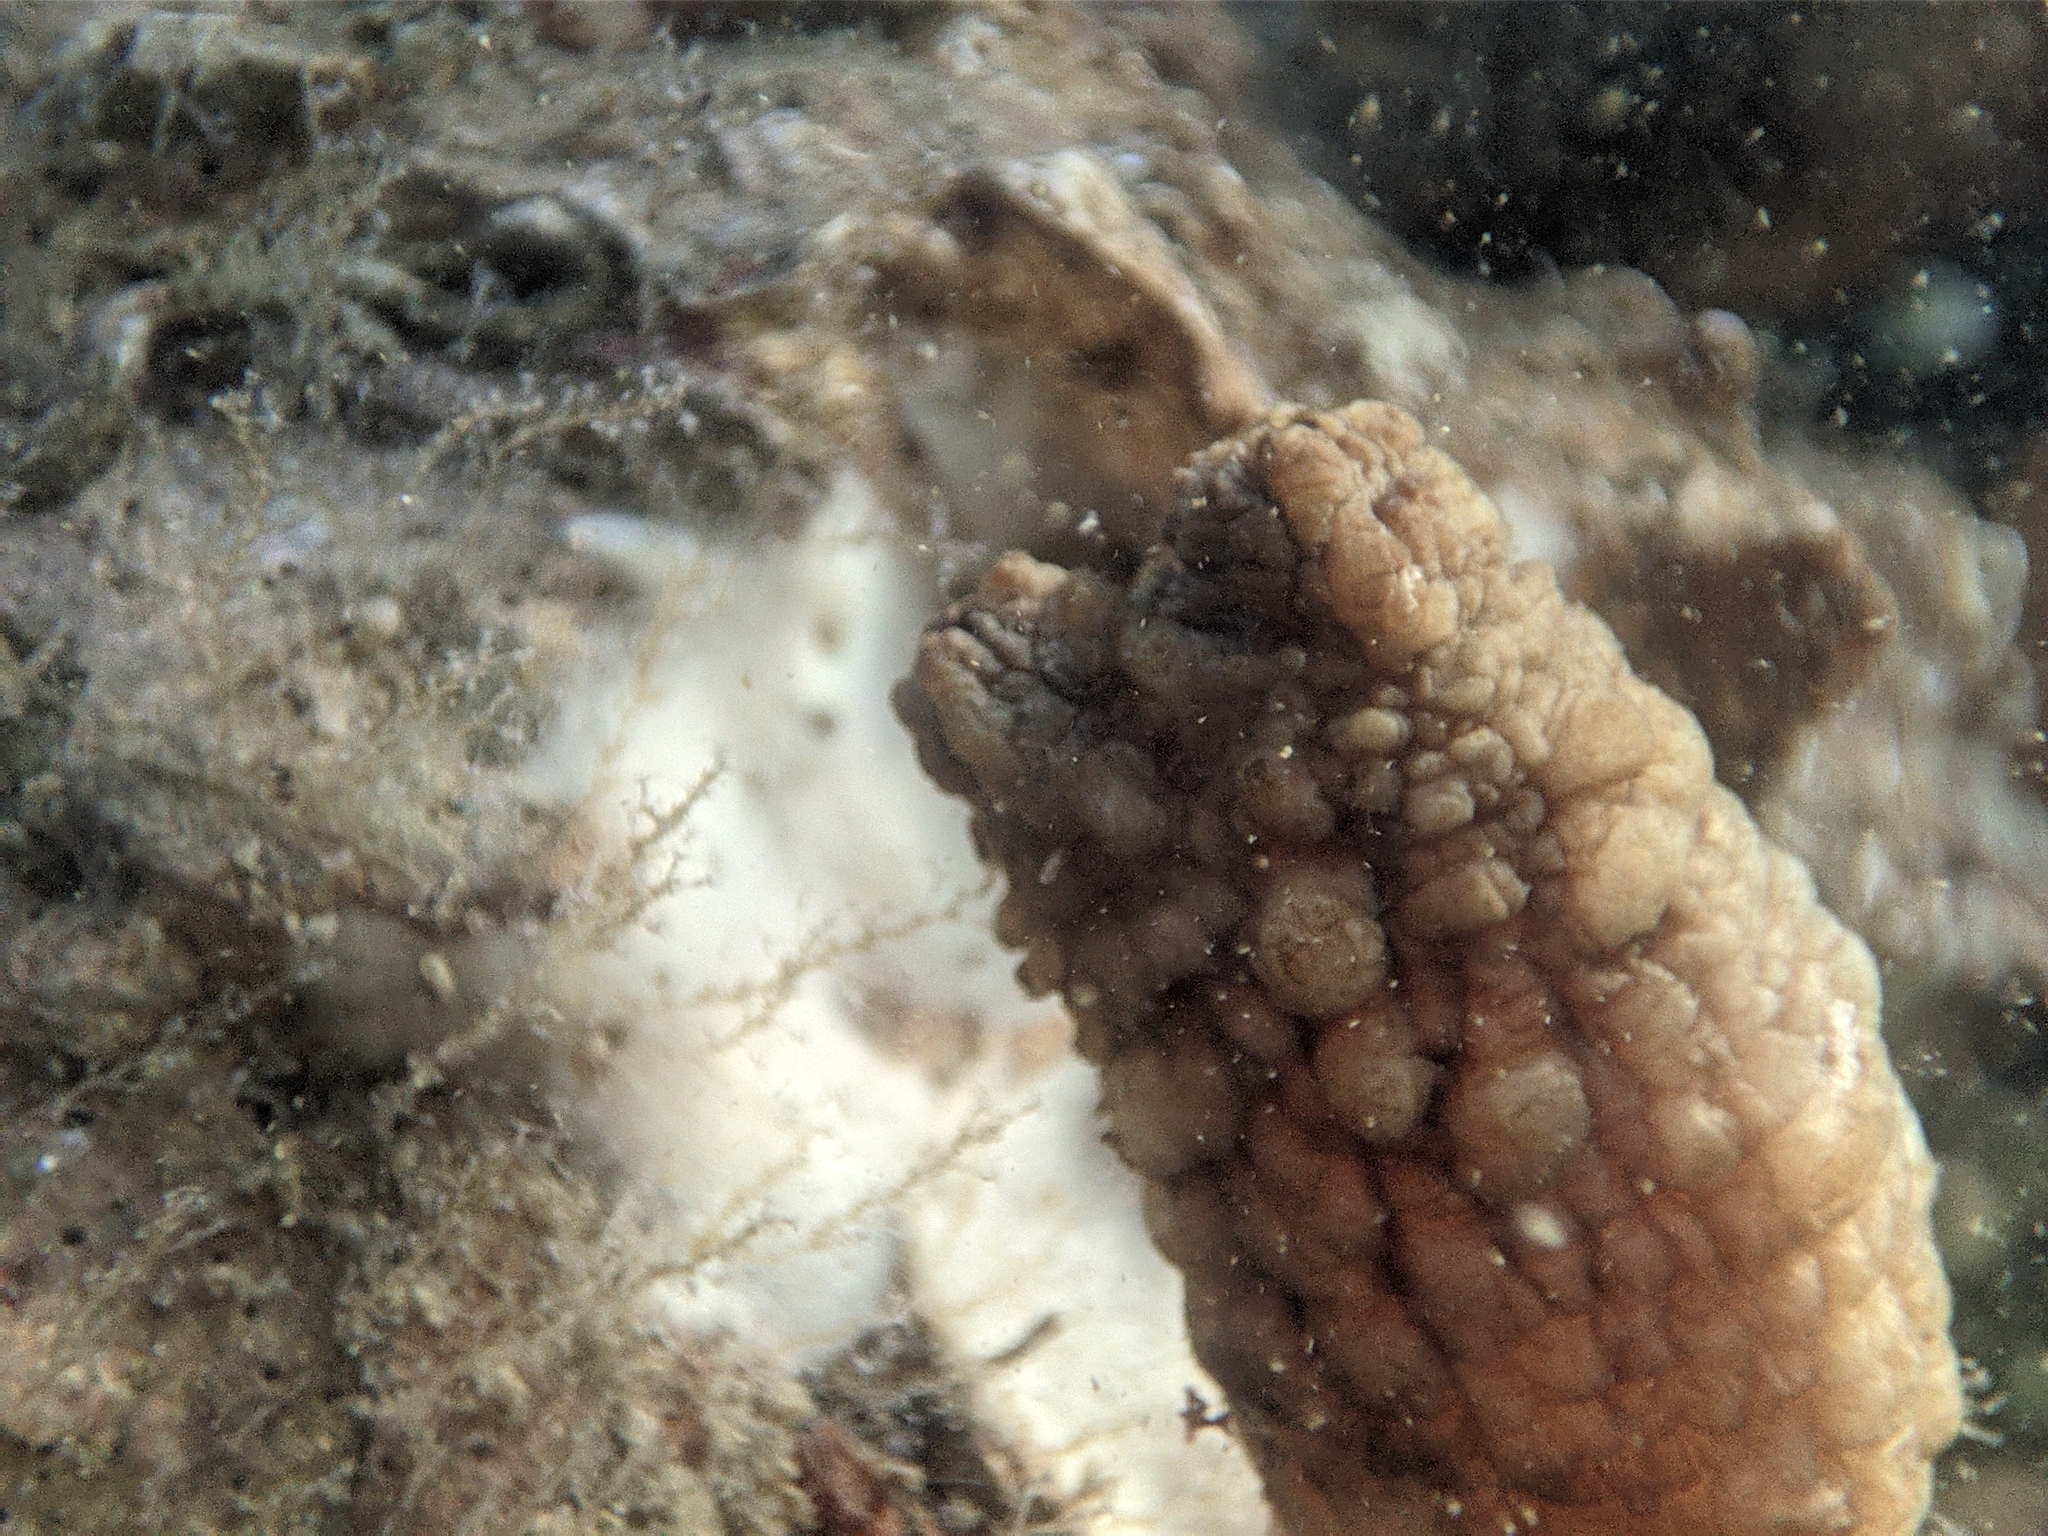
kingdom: Animalia
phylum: Chordata
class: Ascidiacea
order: Stolidobranchia
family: Styelidae
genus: Styela
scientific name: Styela clava
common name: Leathery sea squirt
